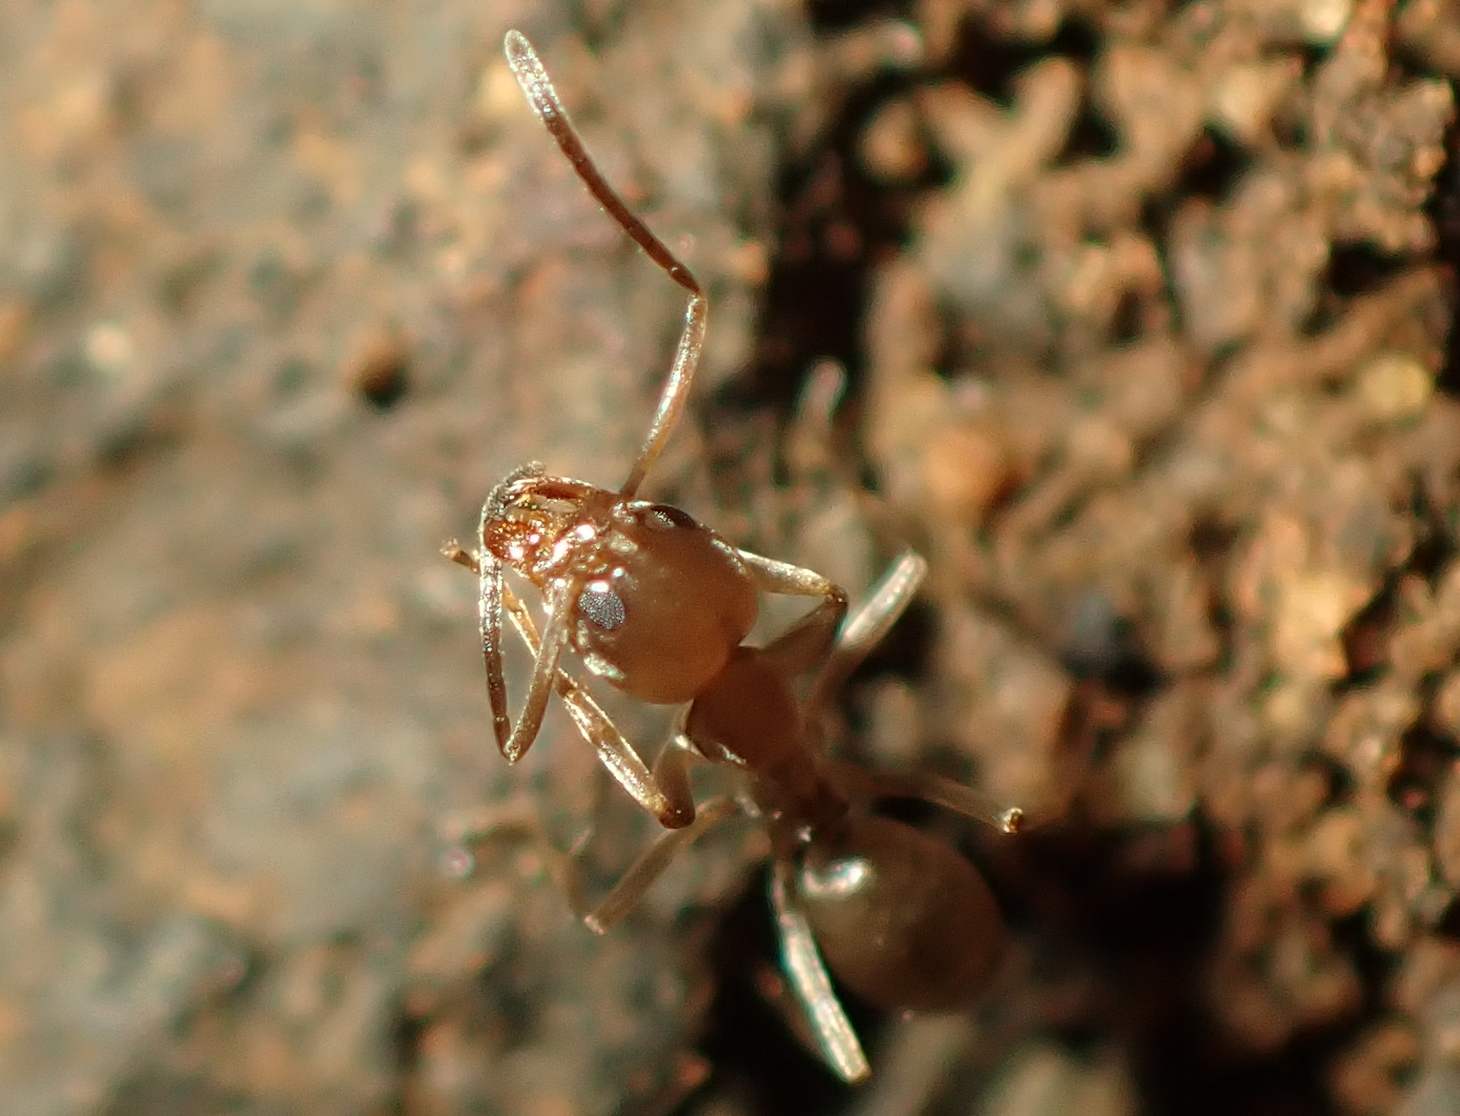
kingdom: Animalia
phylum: Arthropoda
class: Insecta
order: Hymenoptera
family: Formicidae
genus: Linepithema
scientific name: Linepithema humile
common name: Argentine ant
